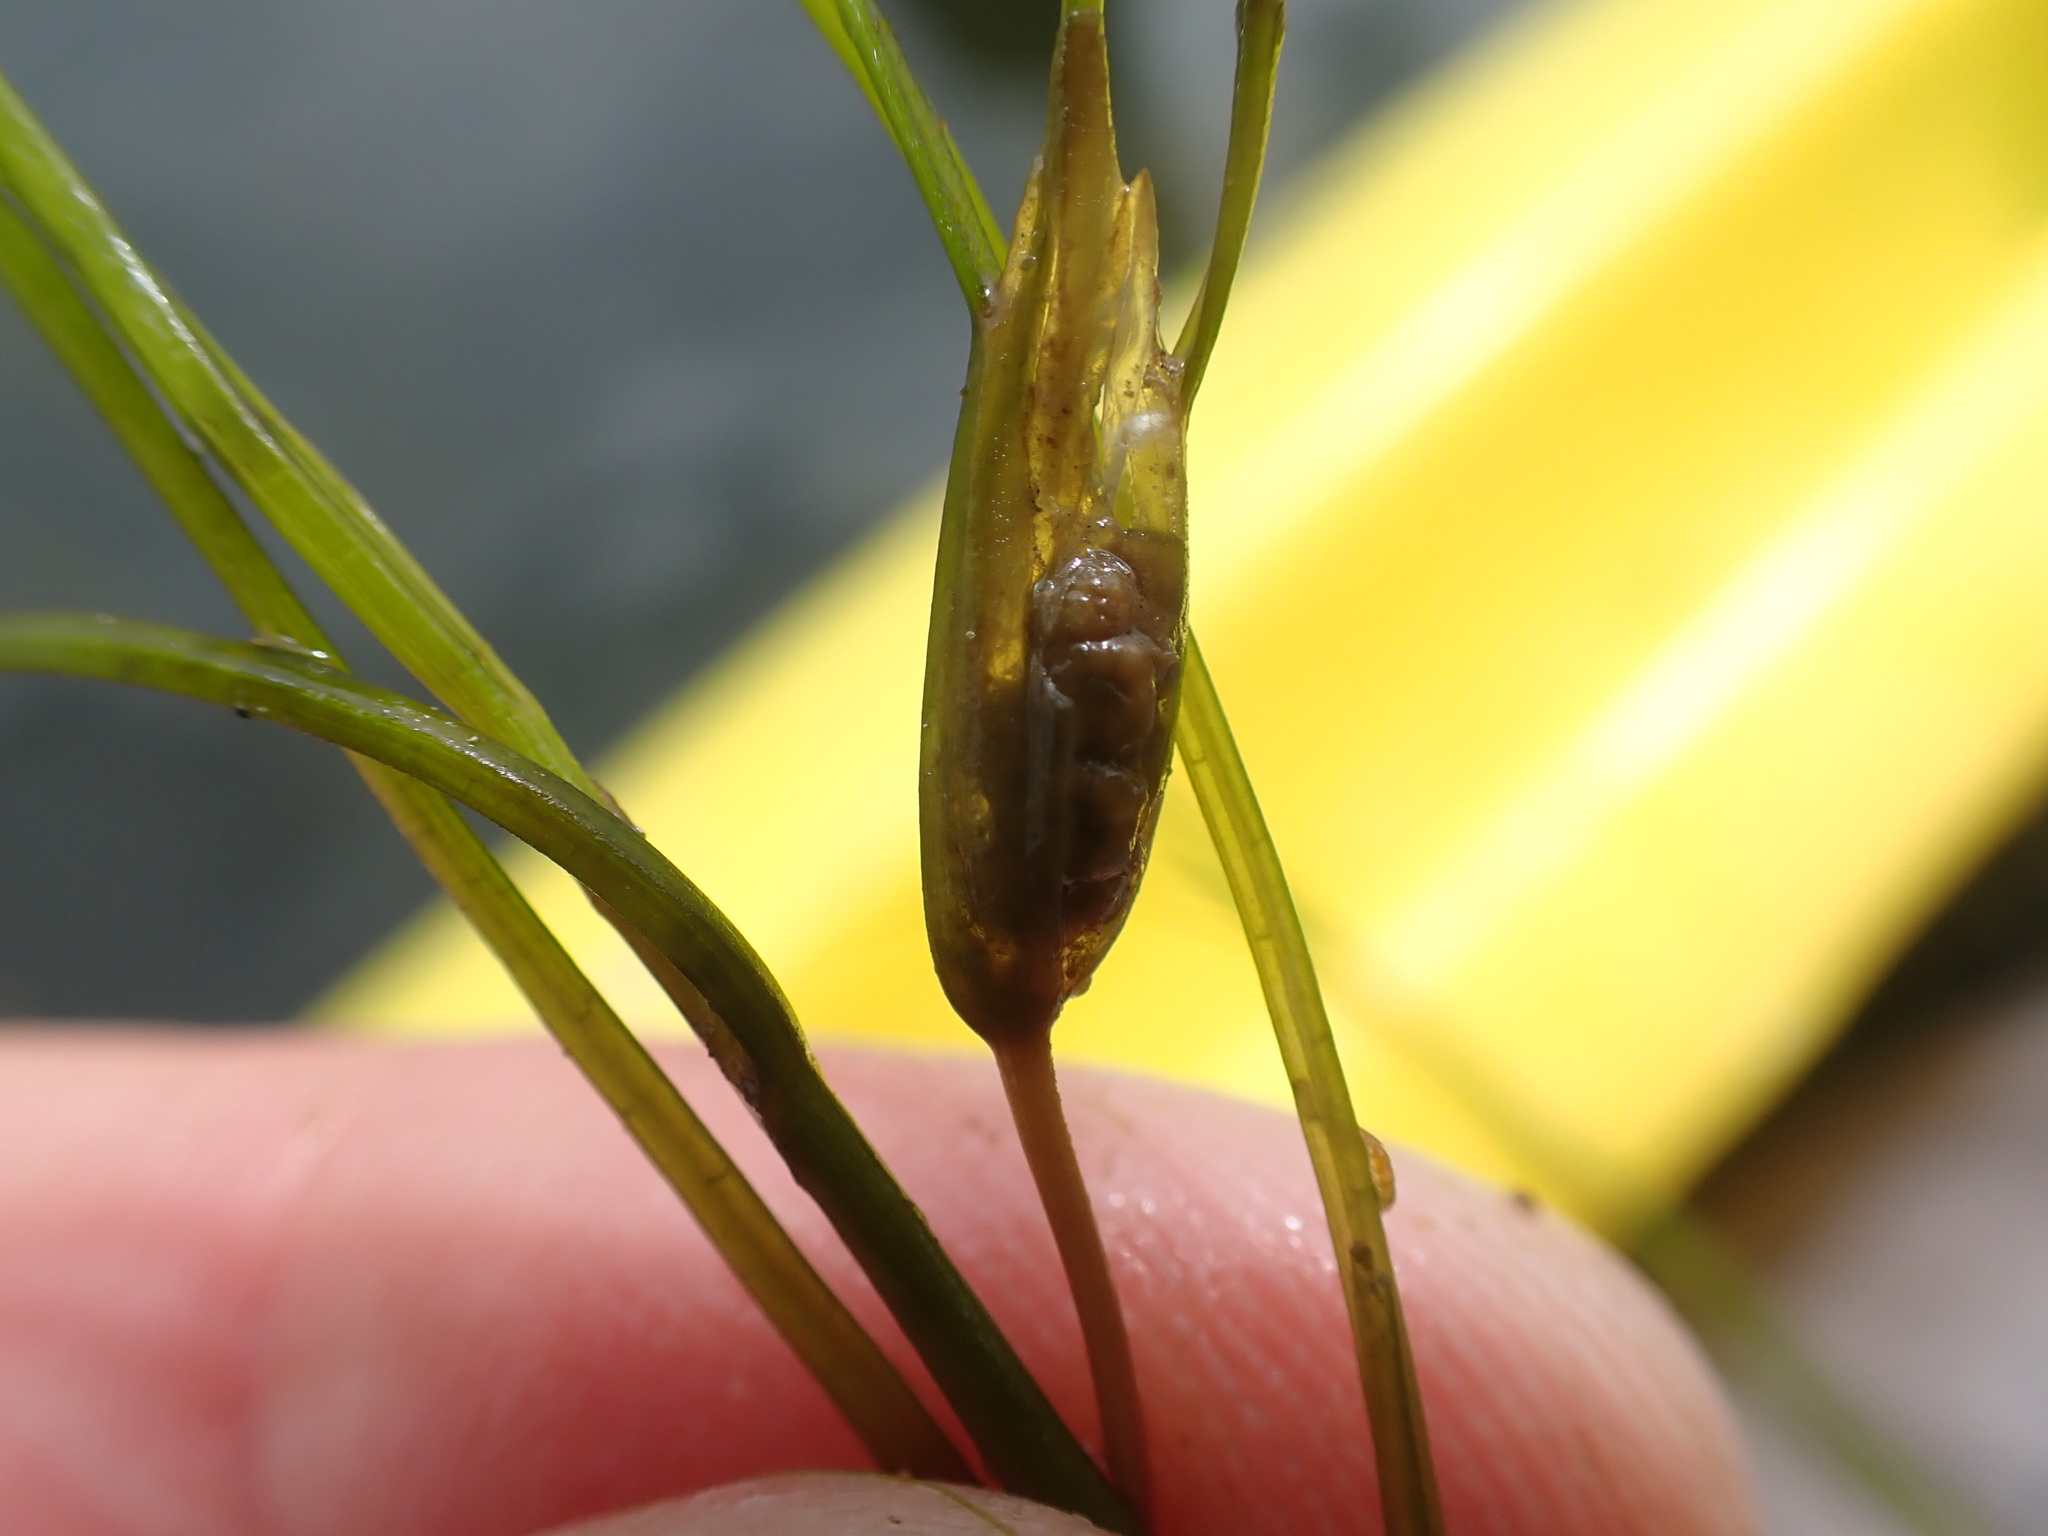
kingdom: Plantae
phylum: Tracheophyta
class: Liliopsida
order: Alismatales
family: Ruppiaceae
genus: Ruppia
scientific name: Ruppia maritima
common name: Beaked tasselweed
